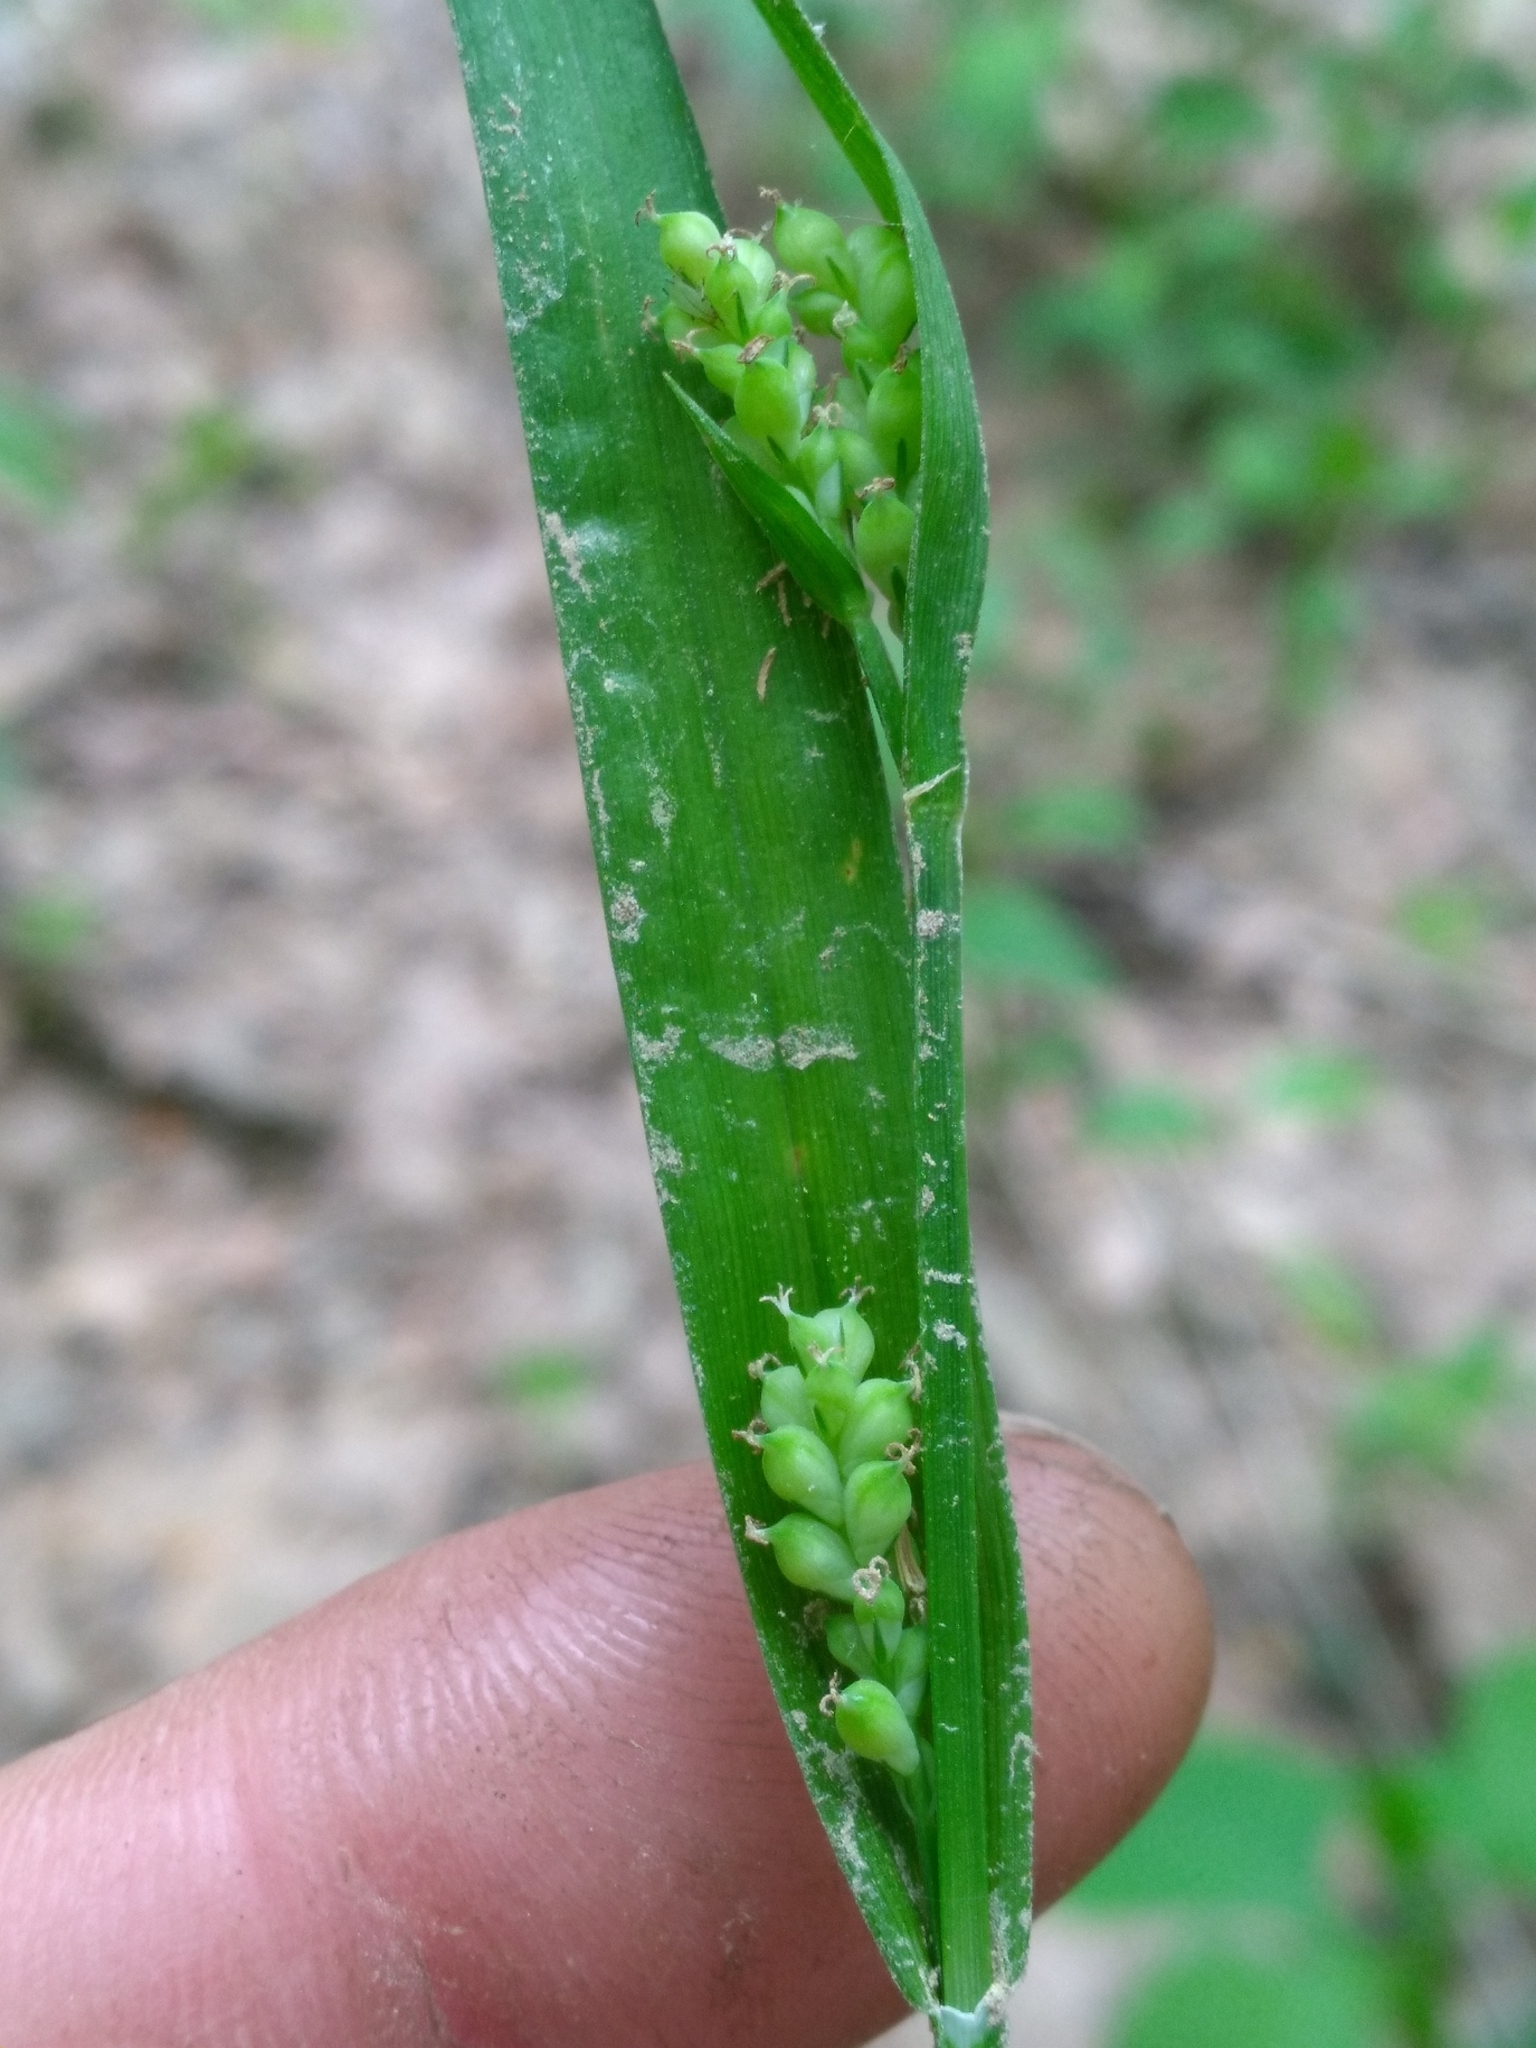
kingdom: Plantae
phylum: Tracheophyta
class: Liliopsida
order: Poales
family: Cyperaceae
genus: Carex
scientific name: Carex kraliana
